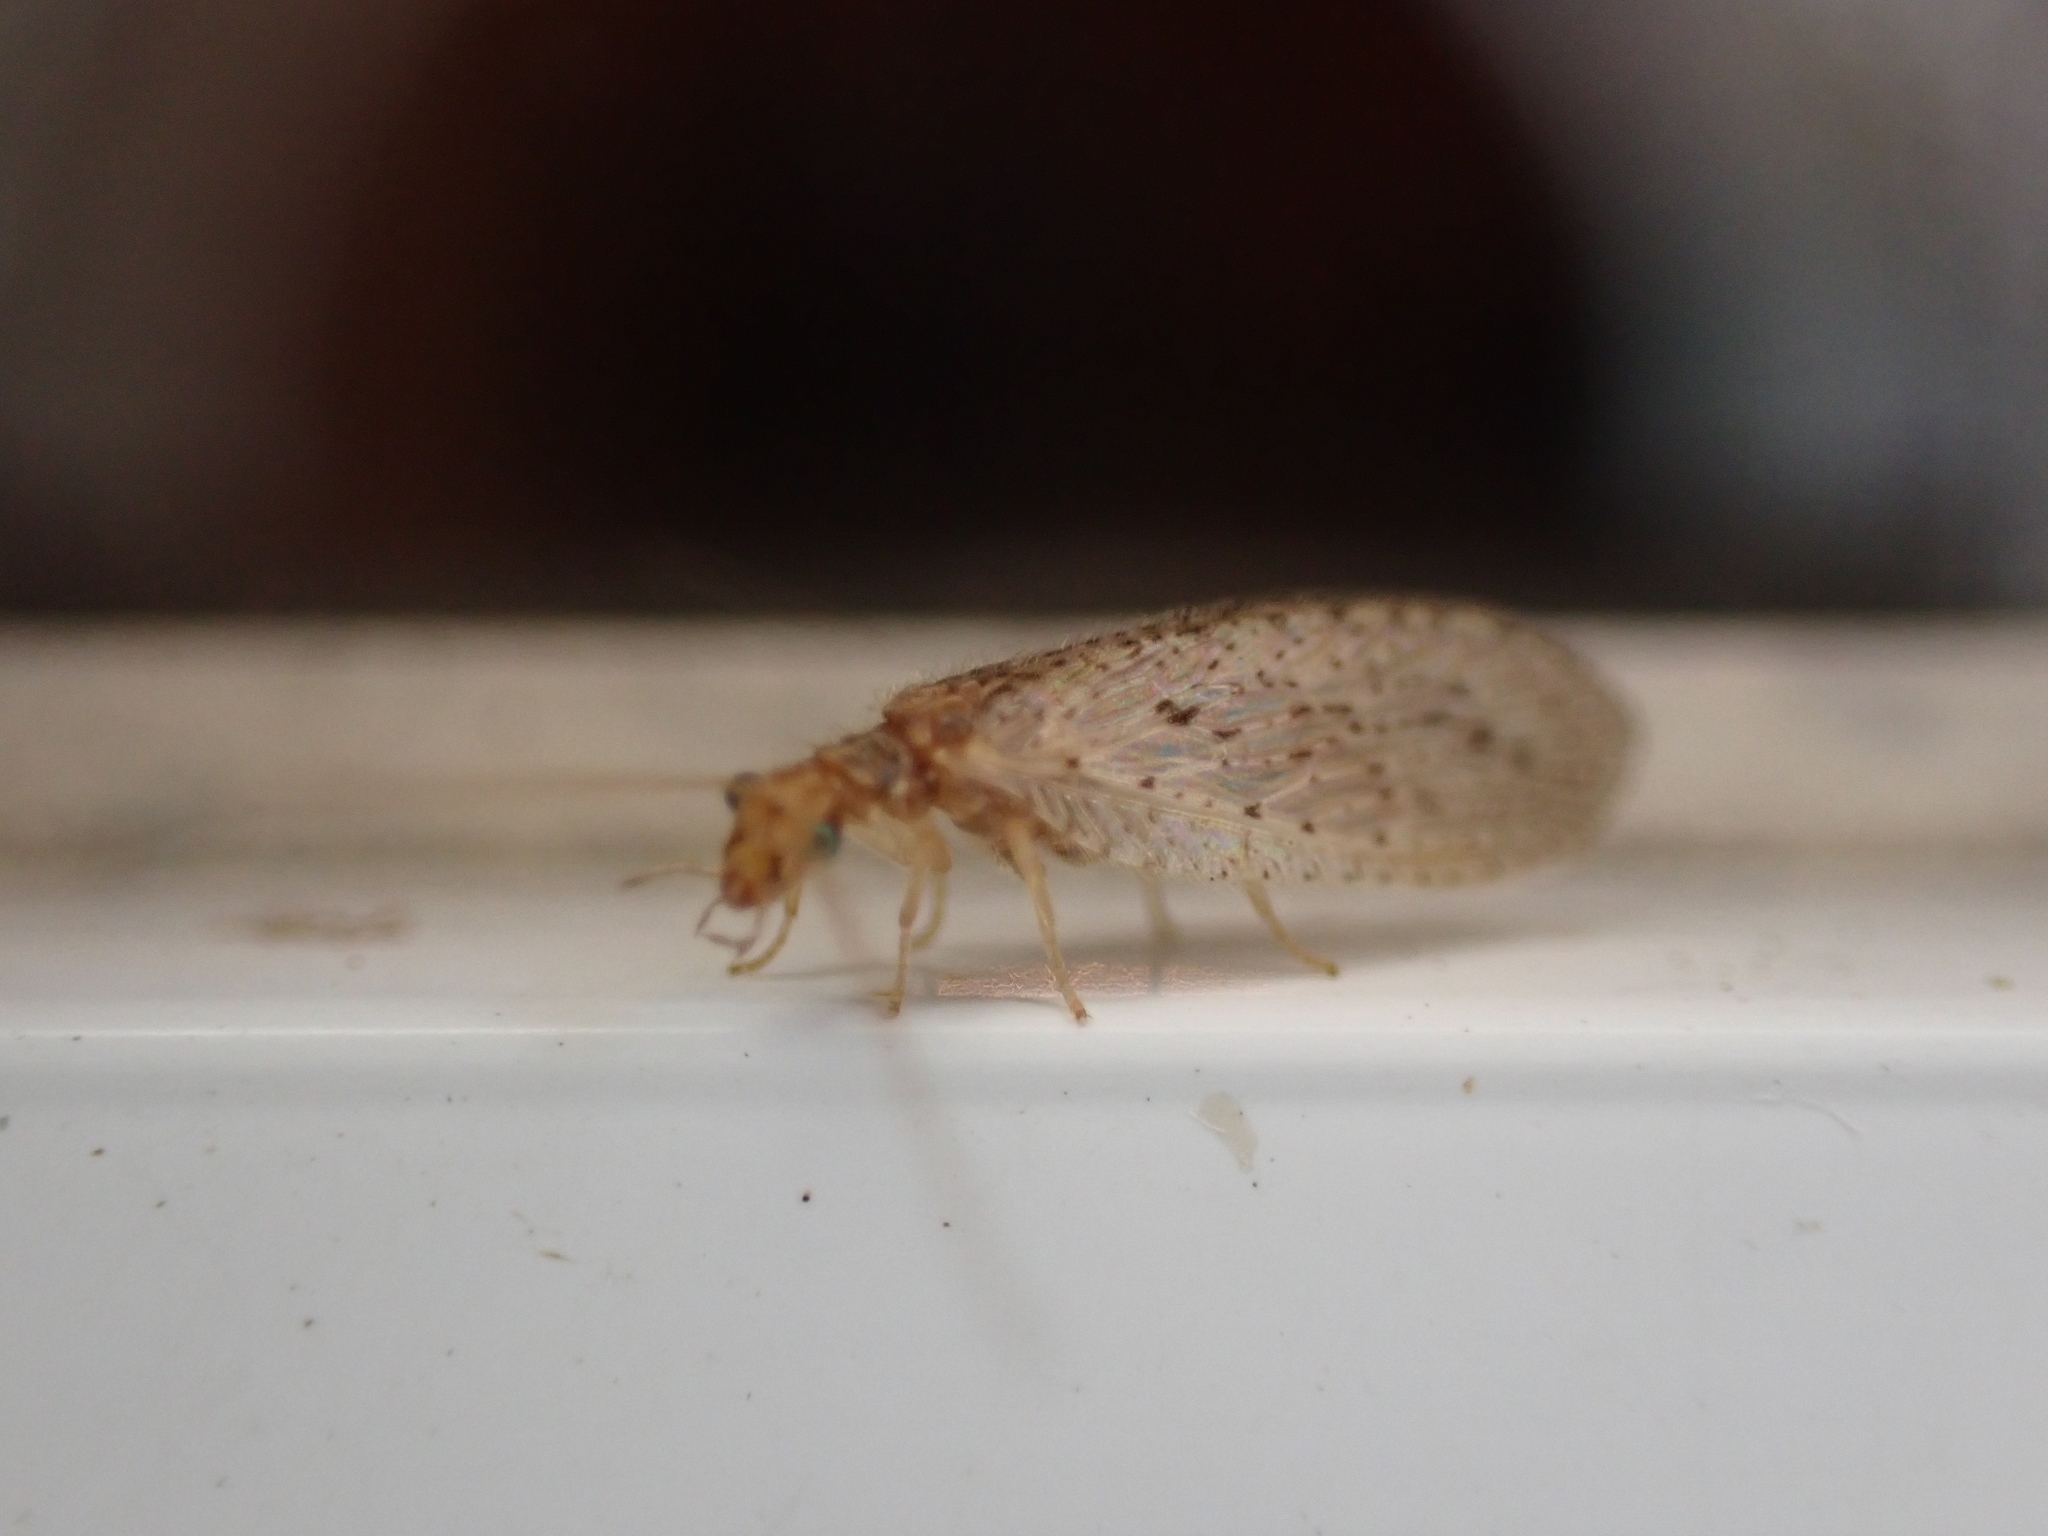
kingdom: Animalia
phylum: Arthropoda
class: Insecta
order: Neuroptera
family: Hemerobiidae
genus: Micromus
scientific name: Micromus subanticus
